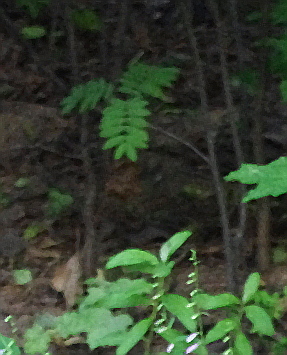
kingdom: Plantae
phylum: Tracheophyta
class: Magnoliopsida
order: Rosales
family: Rosaceae
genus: Sorbus
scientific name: Sorbus aucuparia
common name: Rowan
